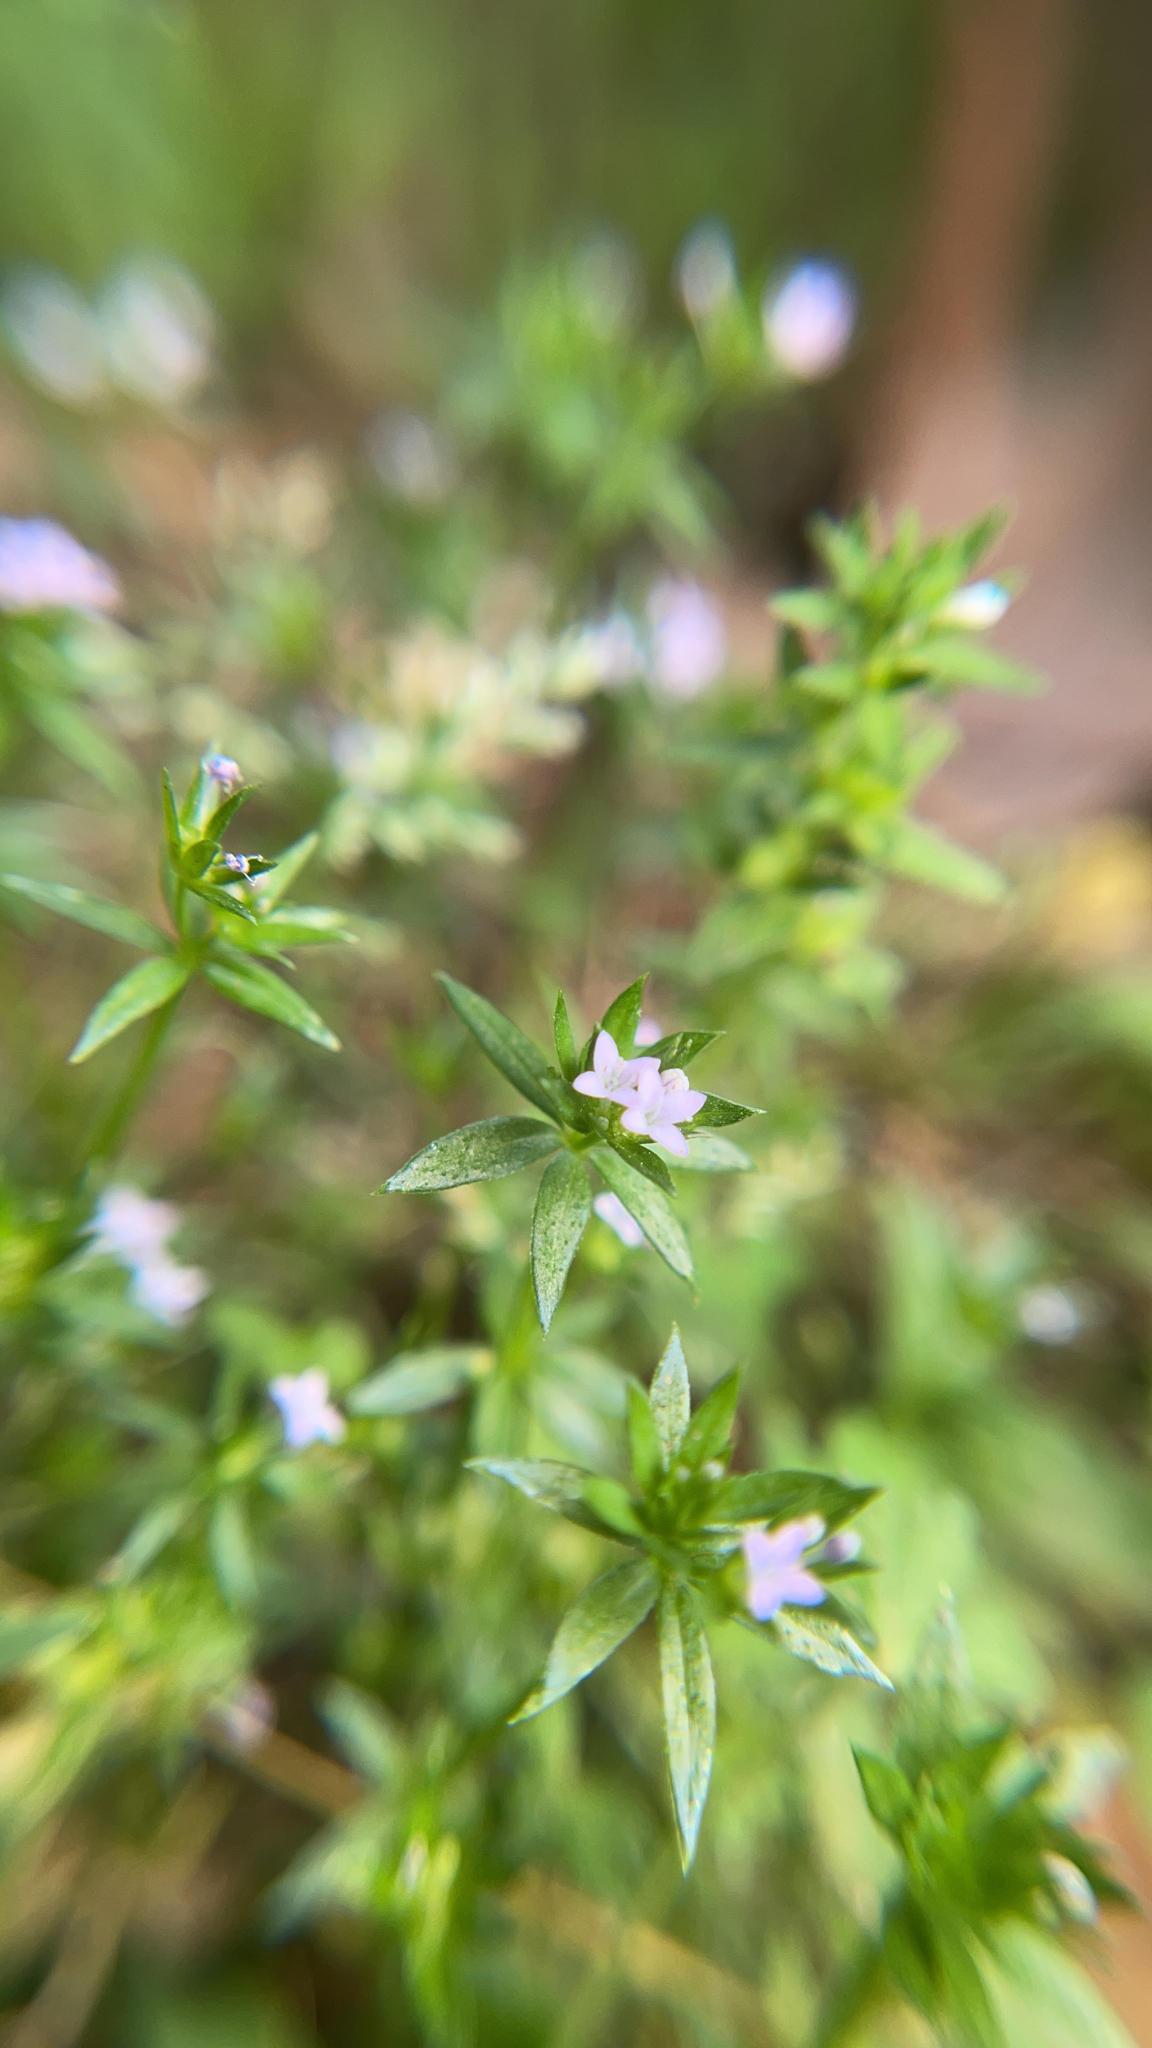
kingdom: Plantae
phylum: Tracheophyta
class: Magnoliopsida
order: Gentianales
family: Rubiaceae
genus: Sherardia
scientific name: Sherardia arvensis
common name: Field madder
